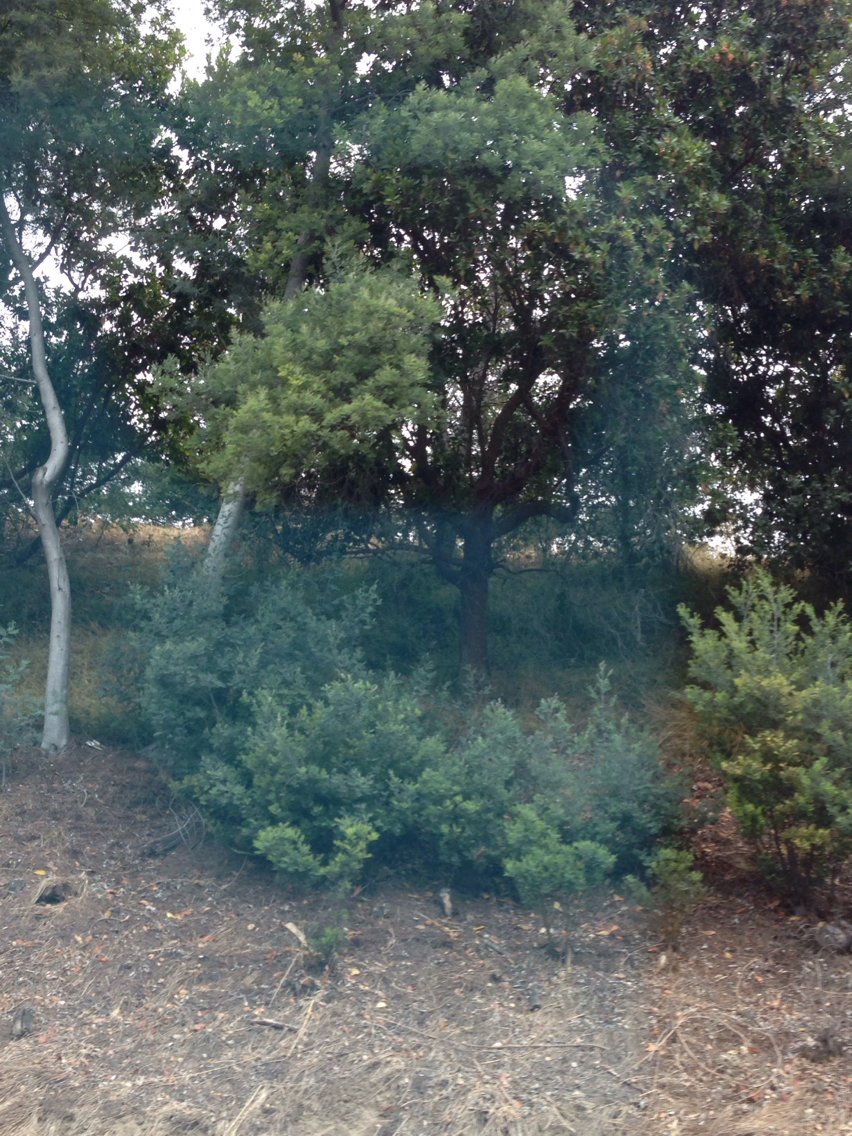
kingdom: Plantae
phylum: Tracheophyta
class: Magnoliopsida
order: Ericales
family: Ericaceae
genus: Arbutus
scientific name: Arbutus menziesii
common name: Pacific madrone
